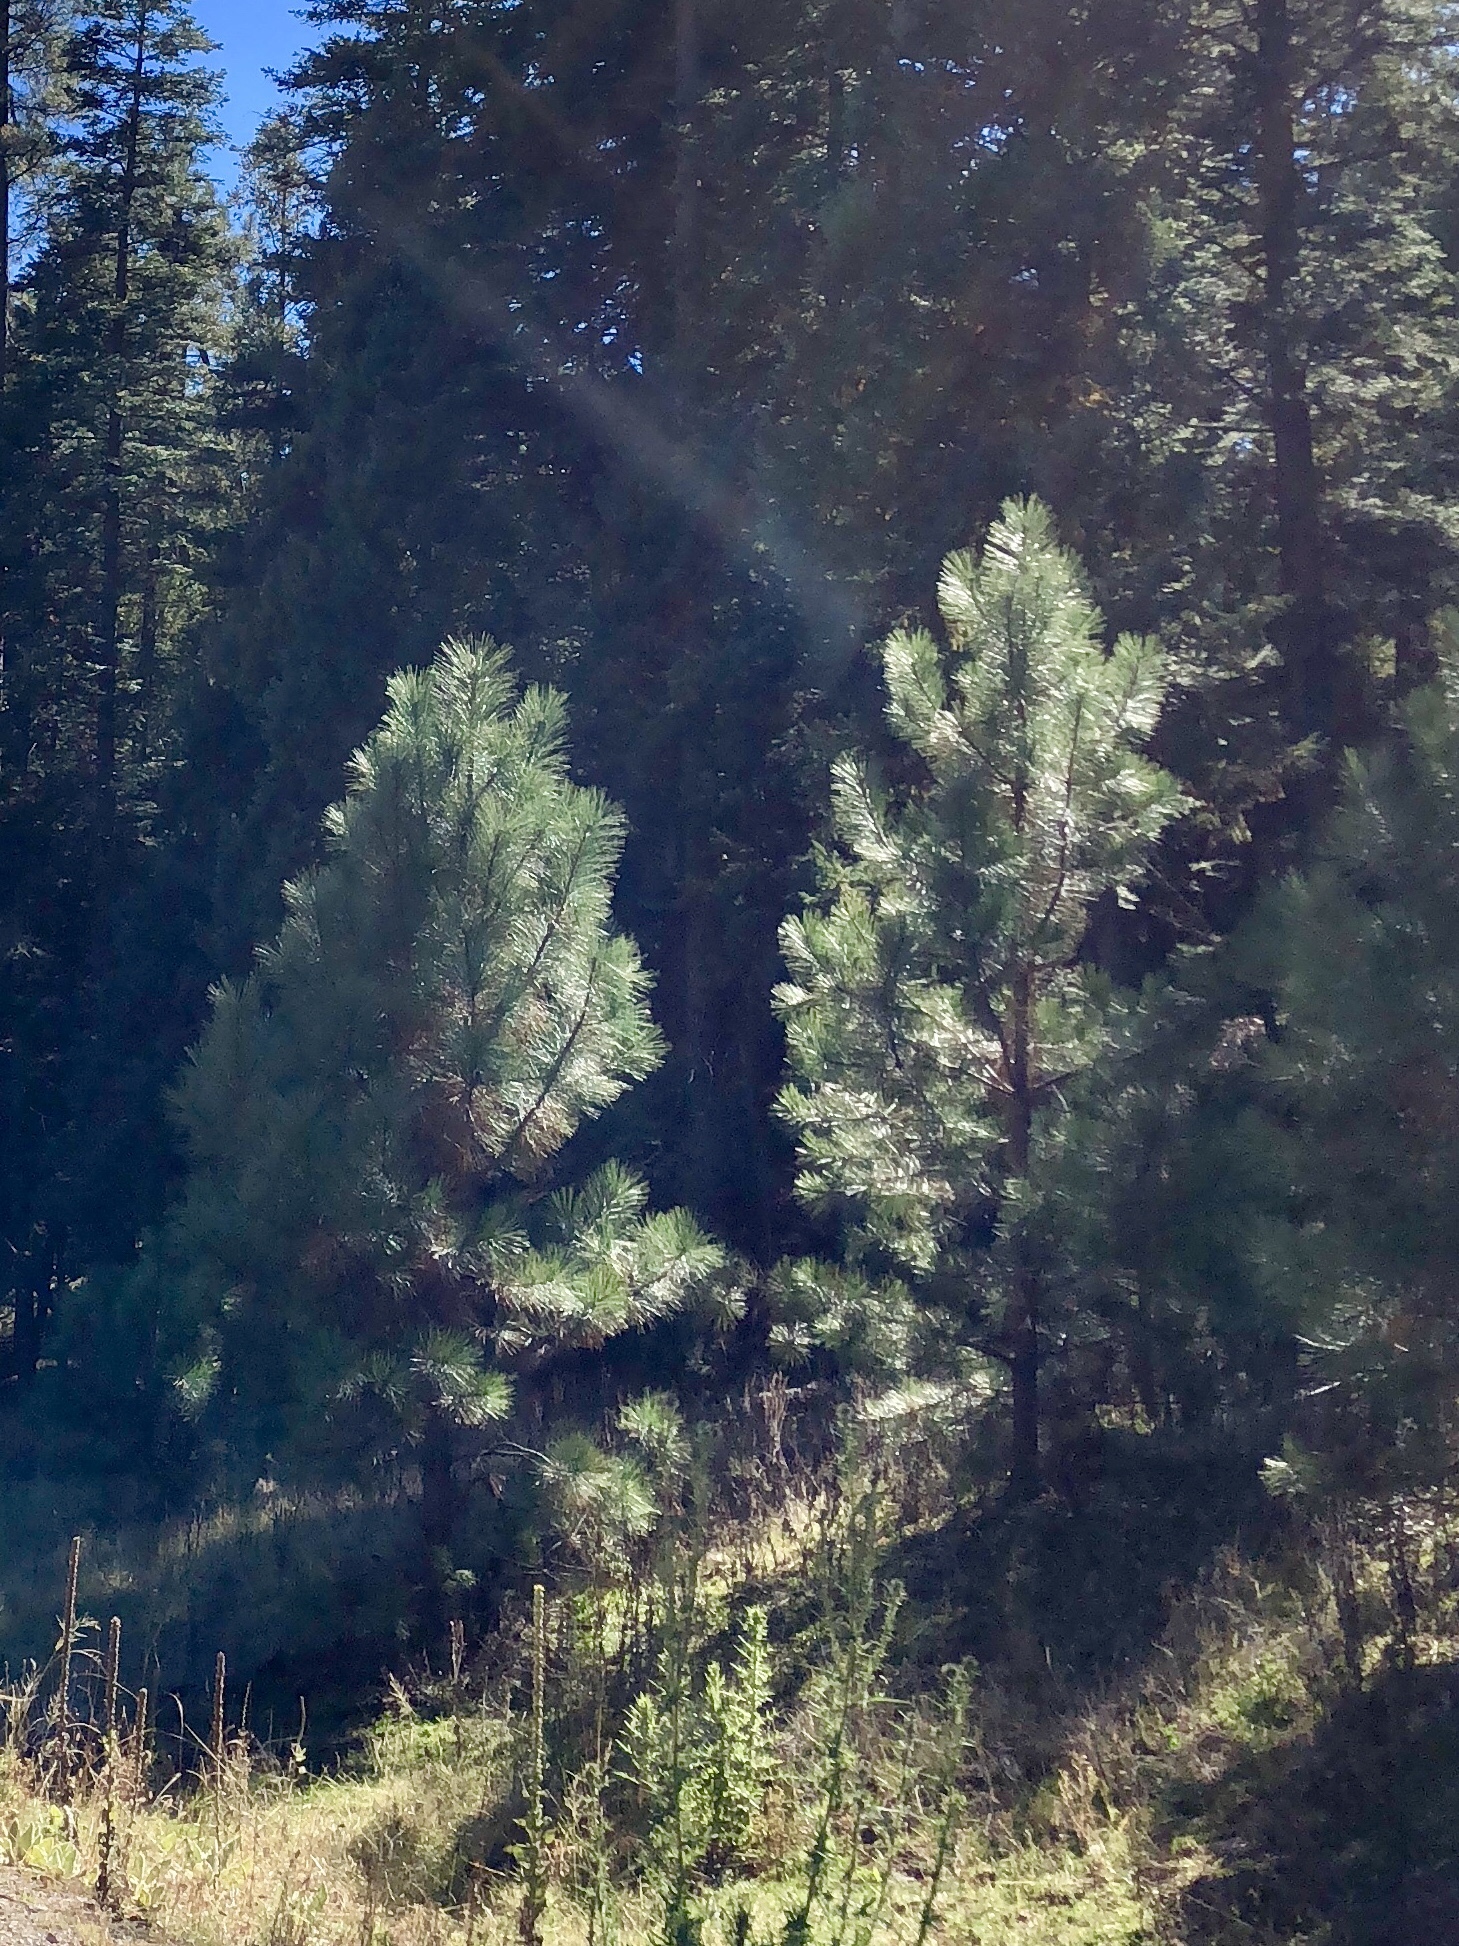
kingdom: Plantae
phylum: Tracheophyta
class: Pinopsida
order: Pinales
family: Pinaceae
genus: Pinus
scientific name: Pinus ponderosa
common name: Western yellow-pine
